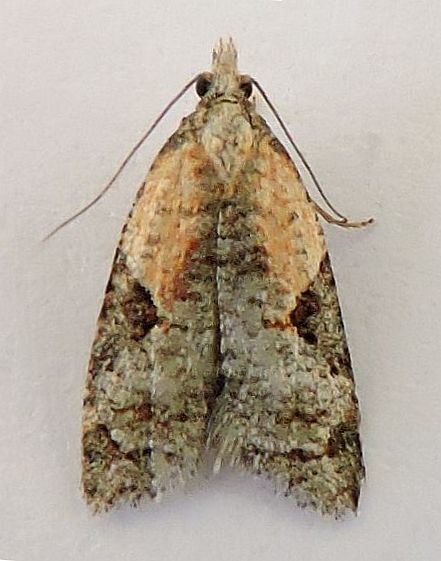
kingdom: Animalia
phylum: Arthropoda
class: Insecta
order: Lepidoptera
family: Tortricidae
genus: Anopina
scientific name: Anopina eleonora
